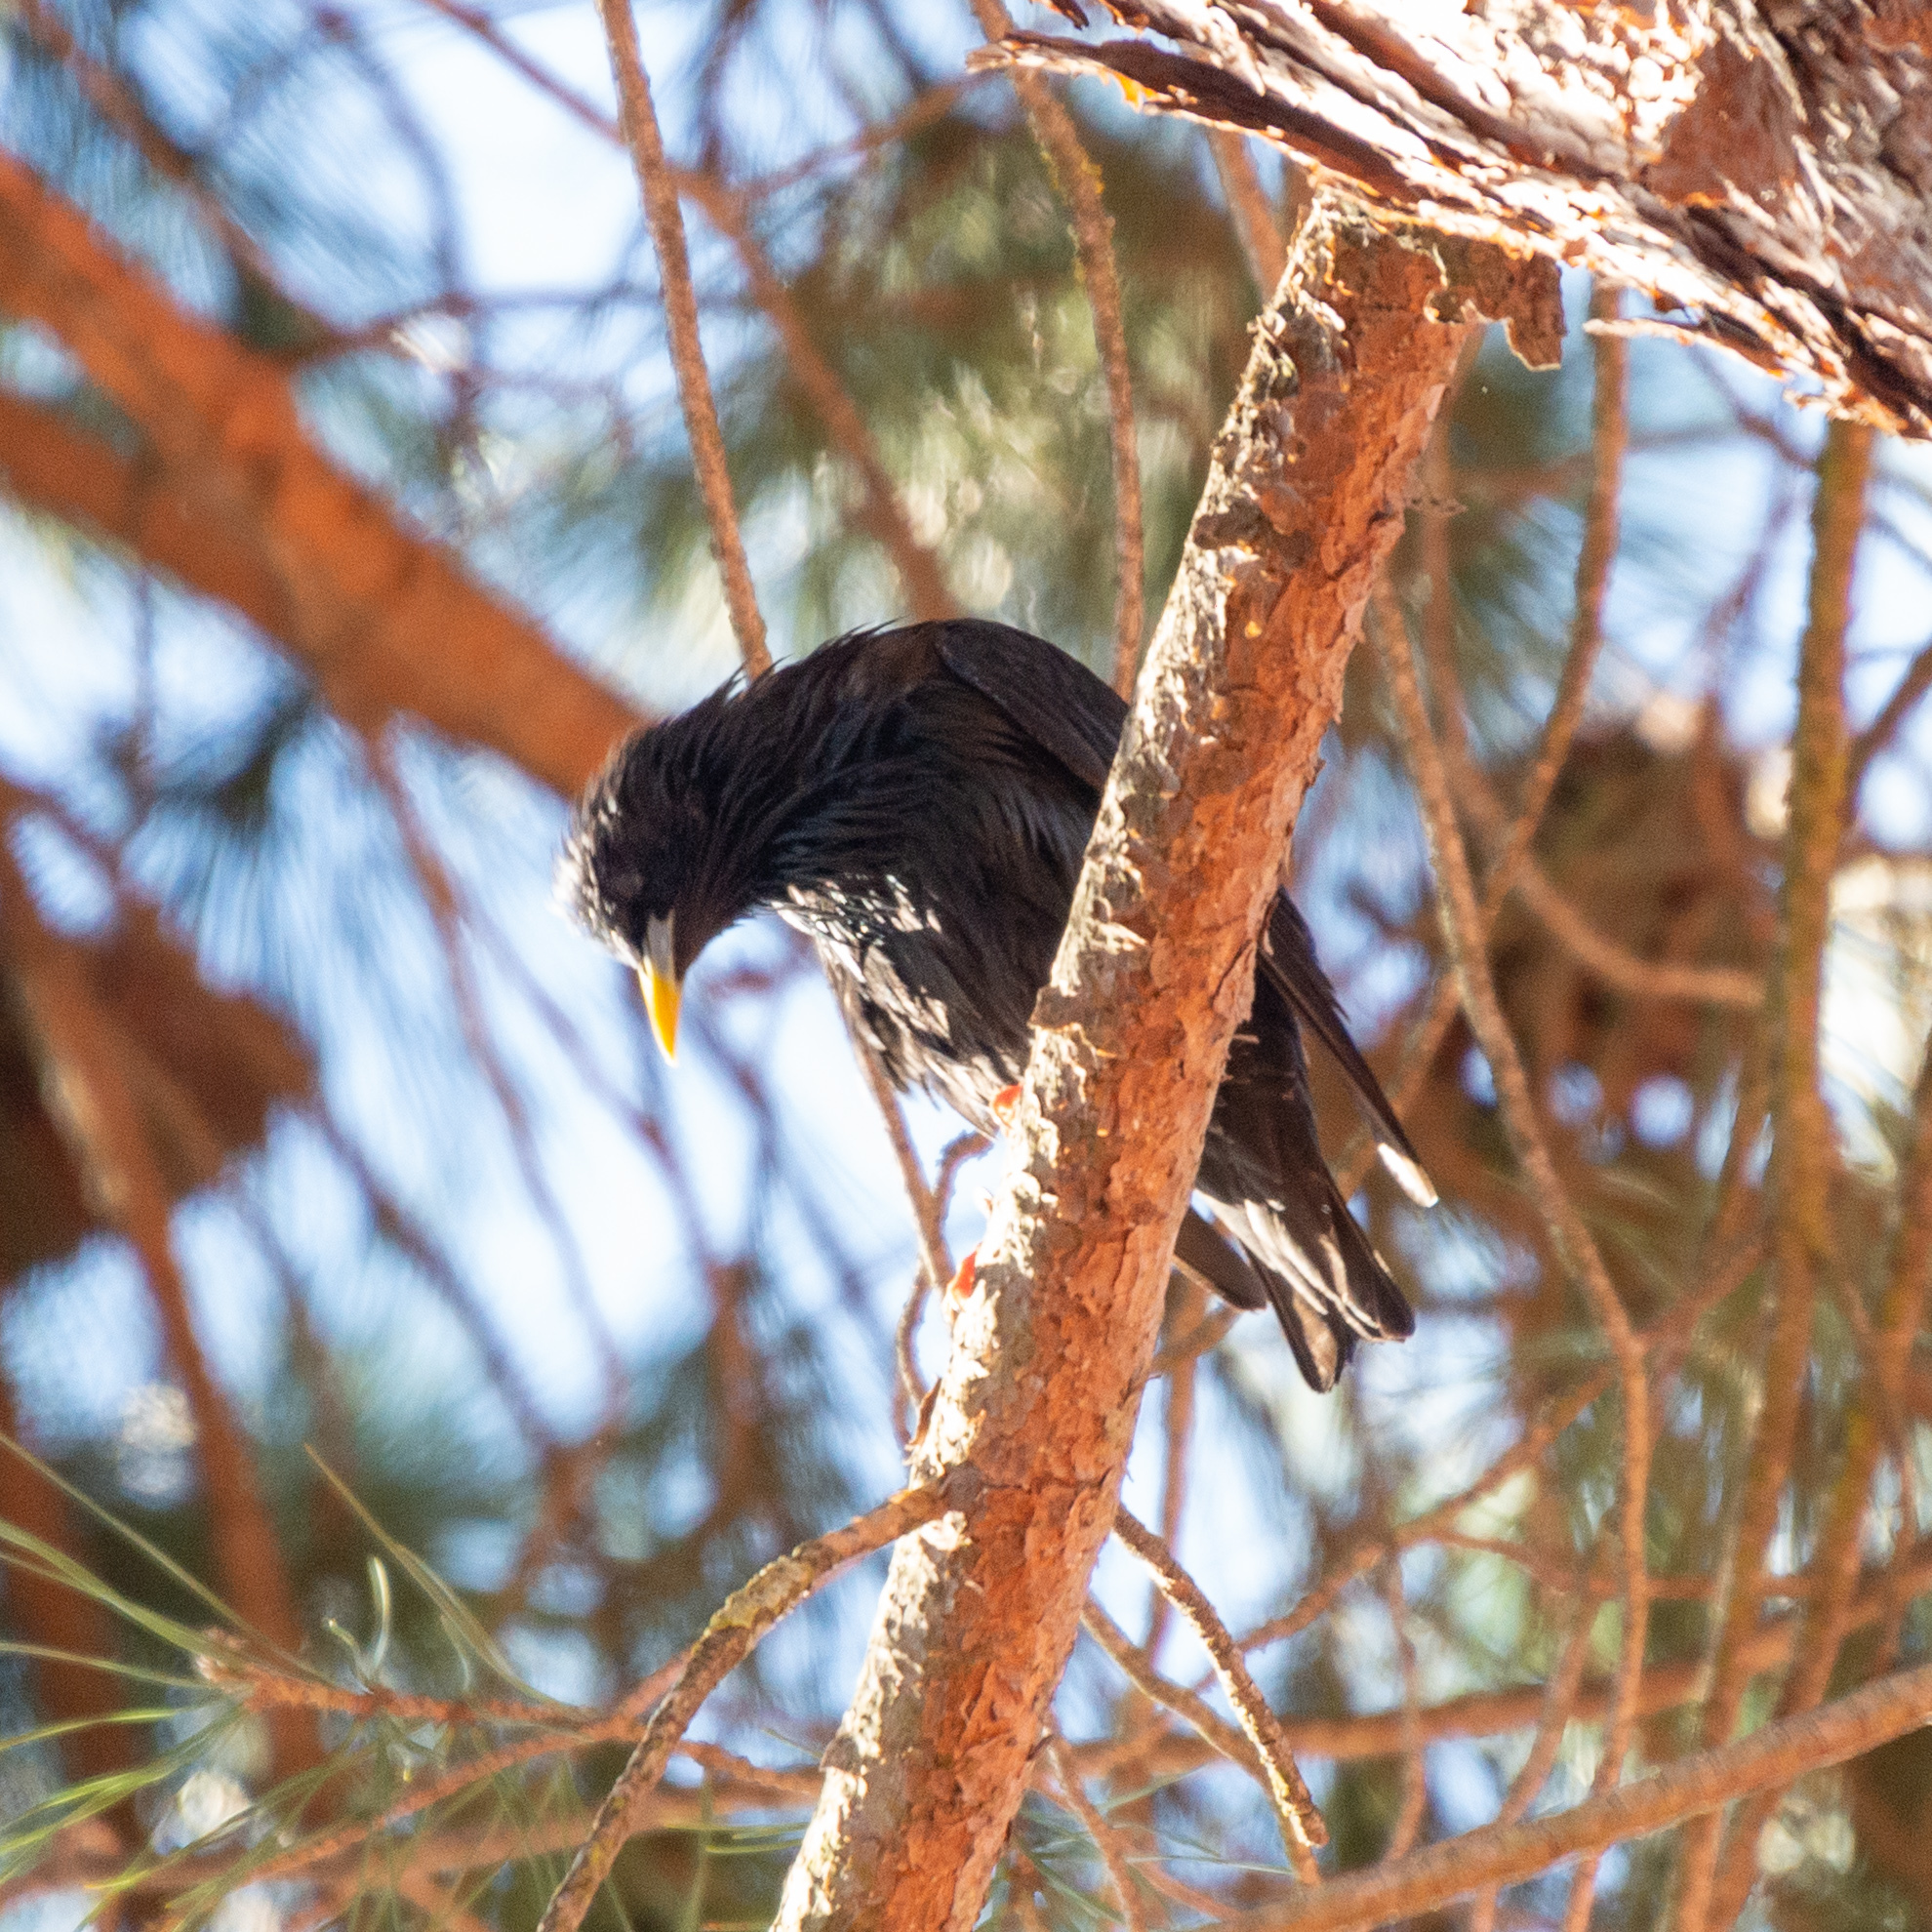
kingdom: Animalia
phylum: Chordata
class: Aves
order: Passeriformes
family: Sturnidae
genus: Sturnus
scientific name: Sturnus unicolor
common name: Spotless starling
